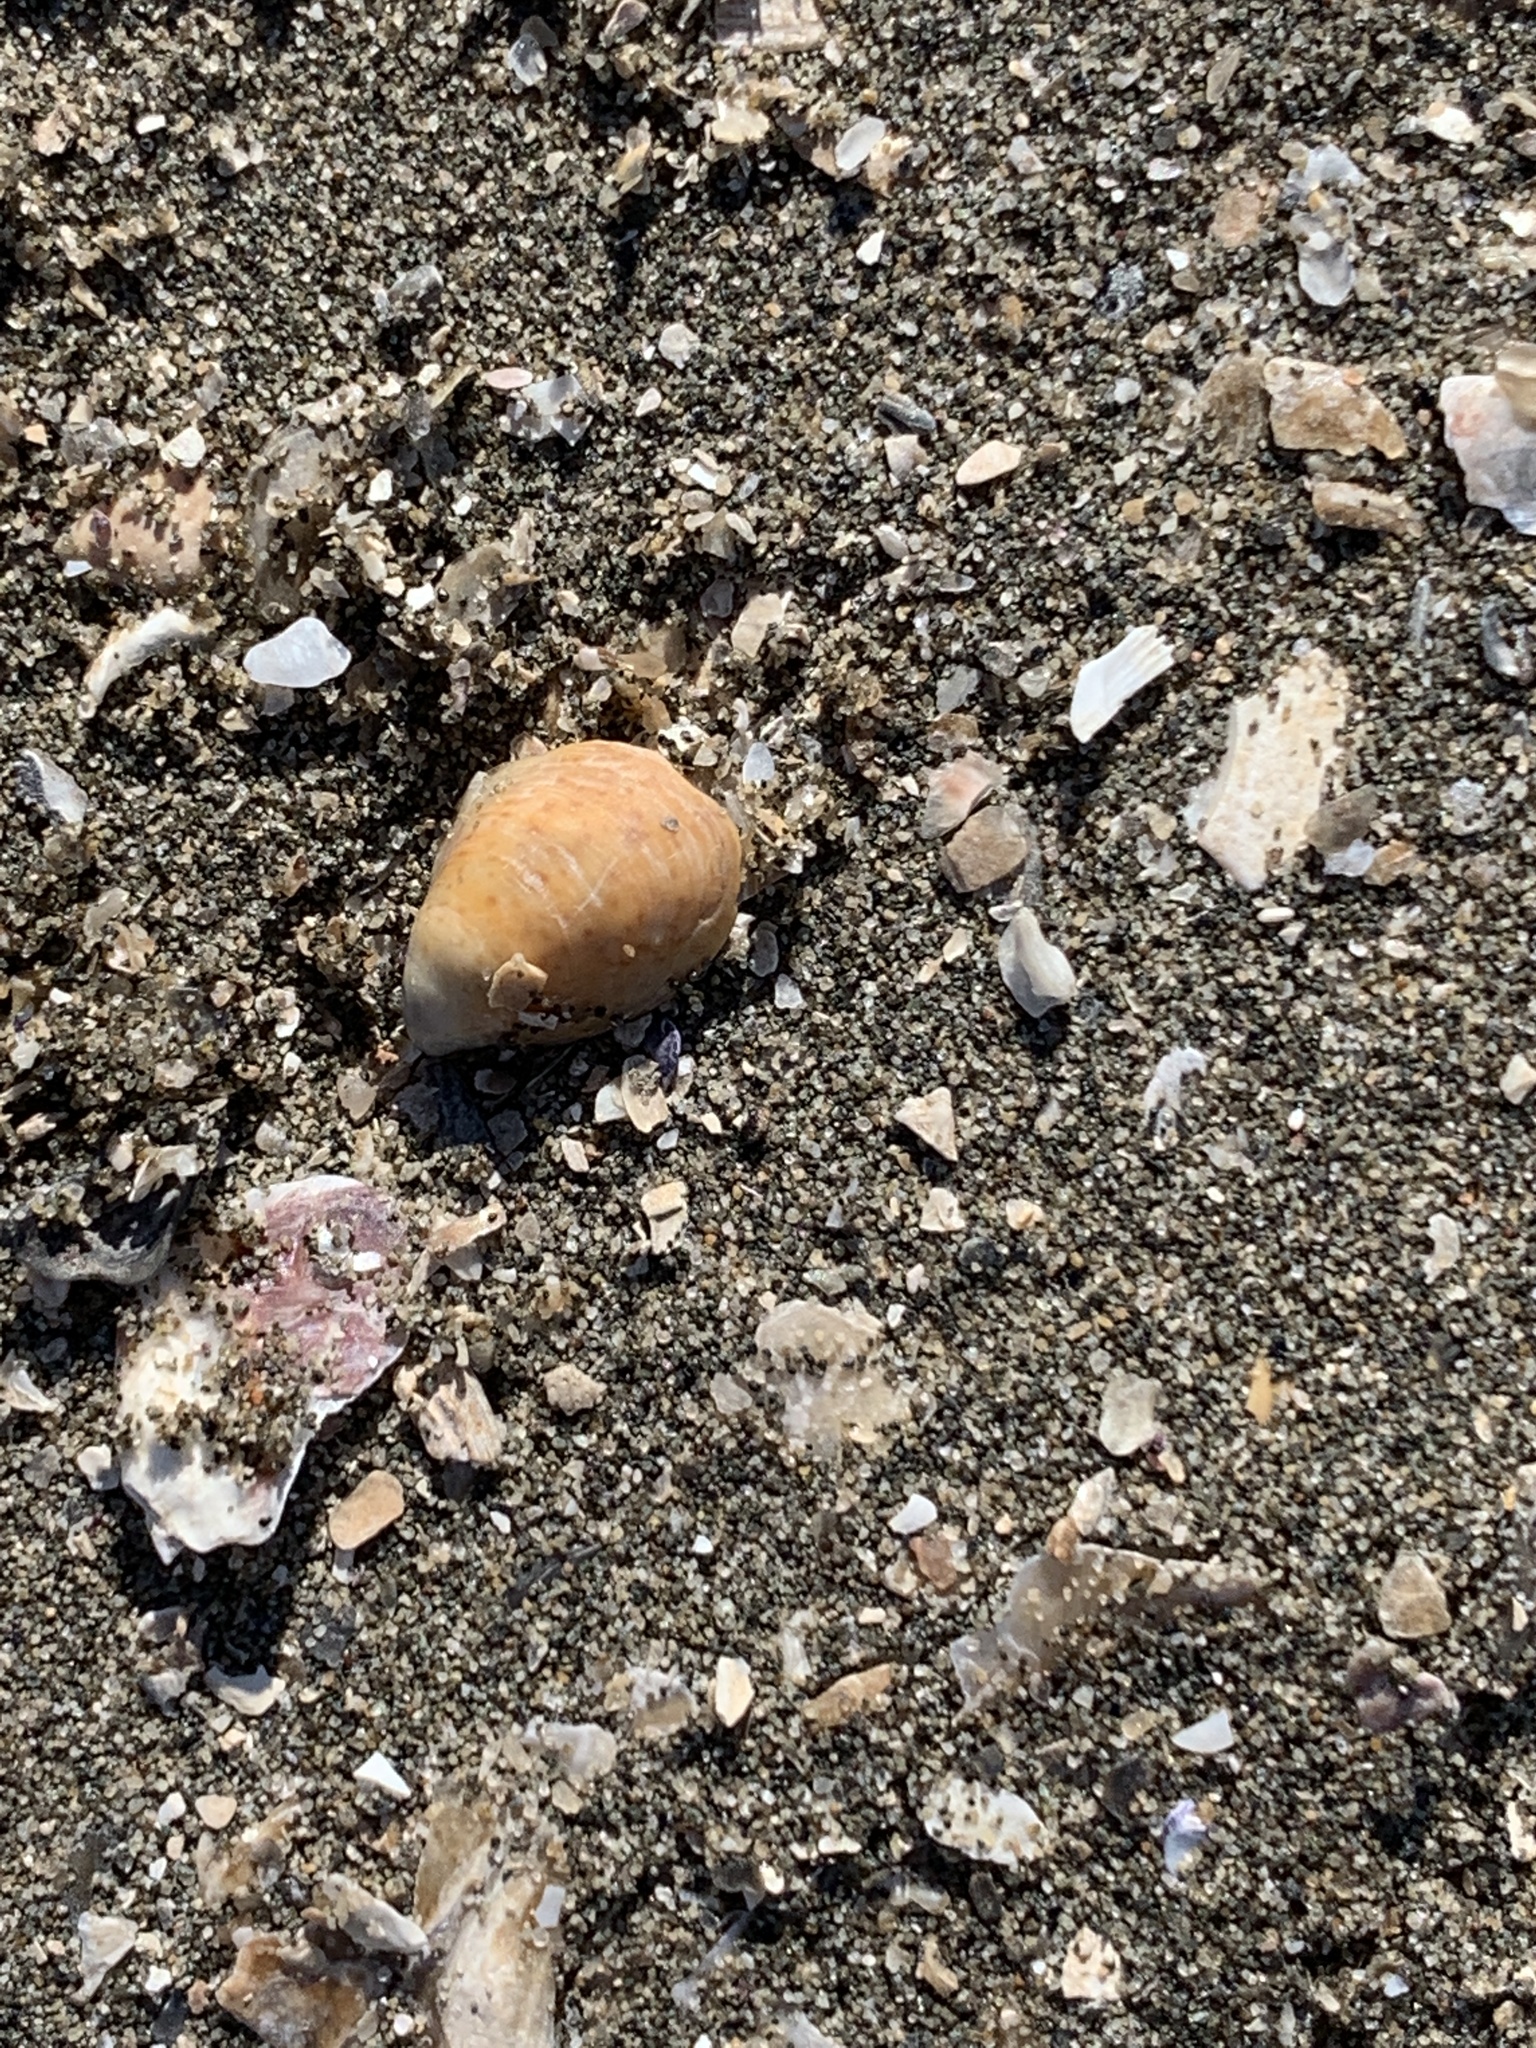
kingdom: Animalia
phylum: Mollusca
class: Gastropoda
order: Littorinimorpha
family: Calyptraeidae
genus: Crepidula
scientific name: Crepidula convexa
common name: Convex slippersnail
